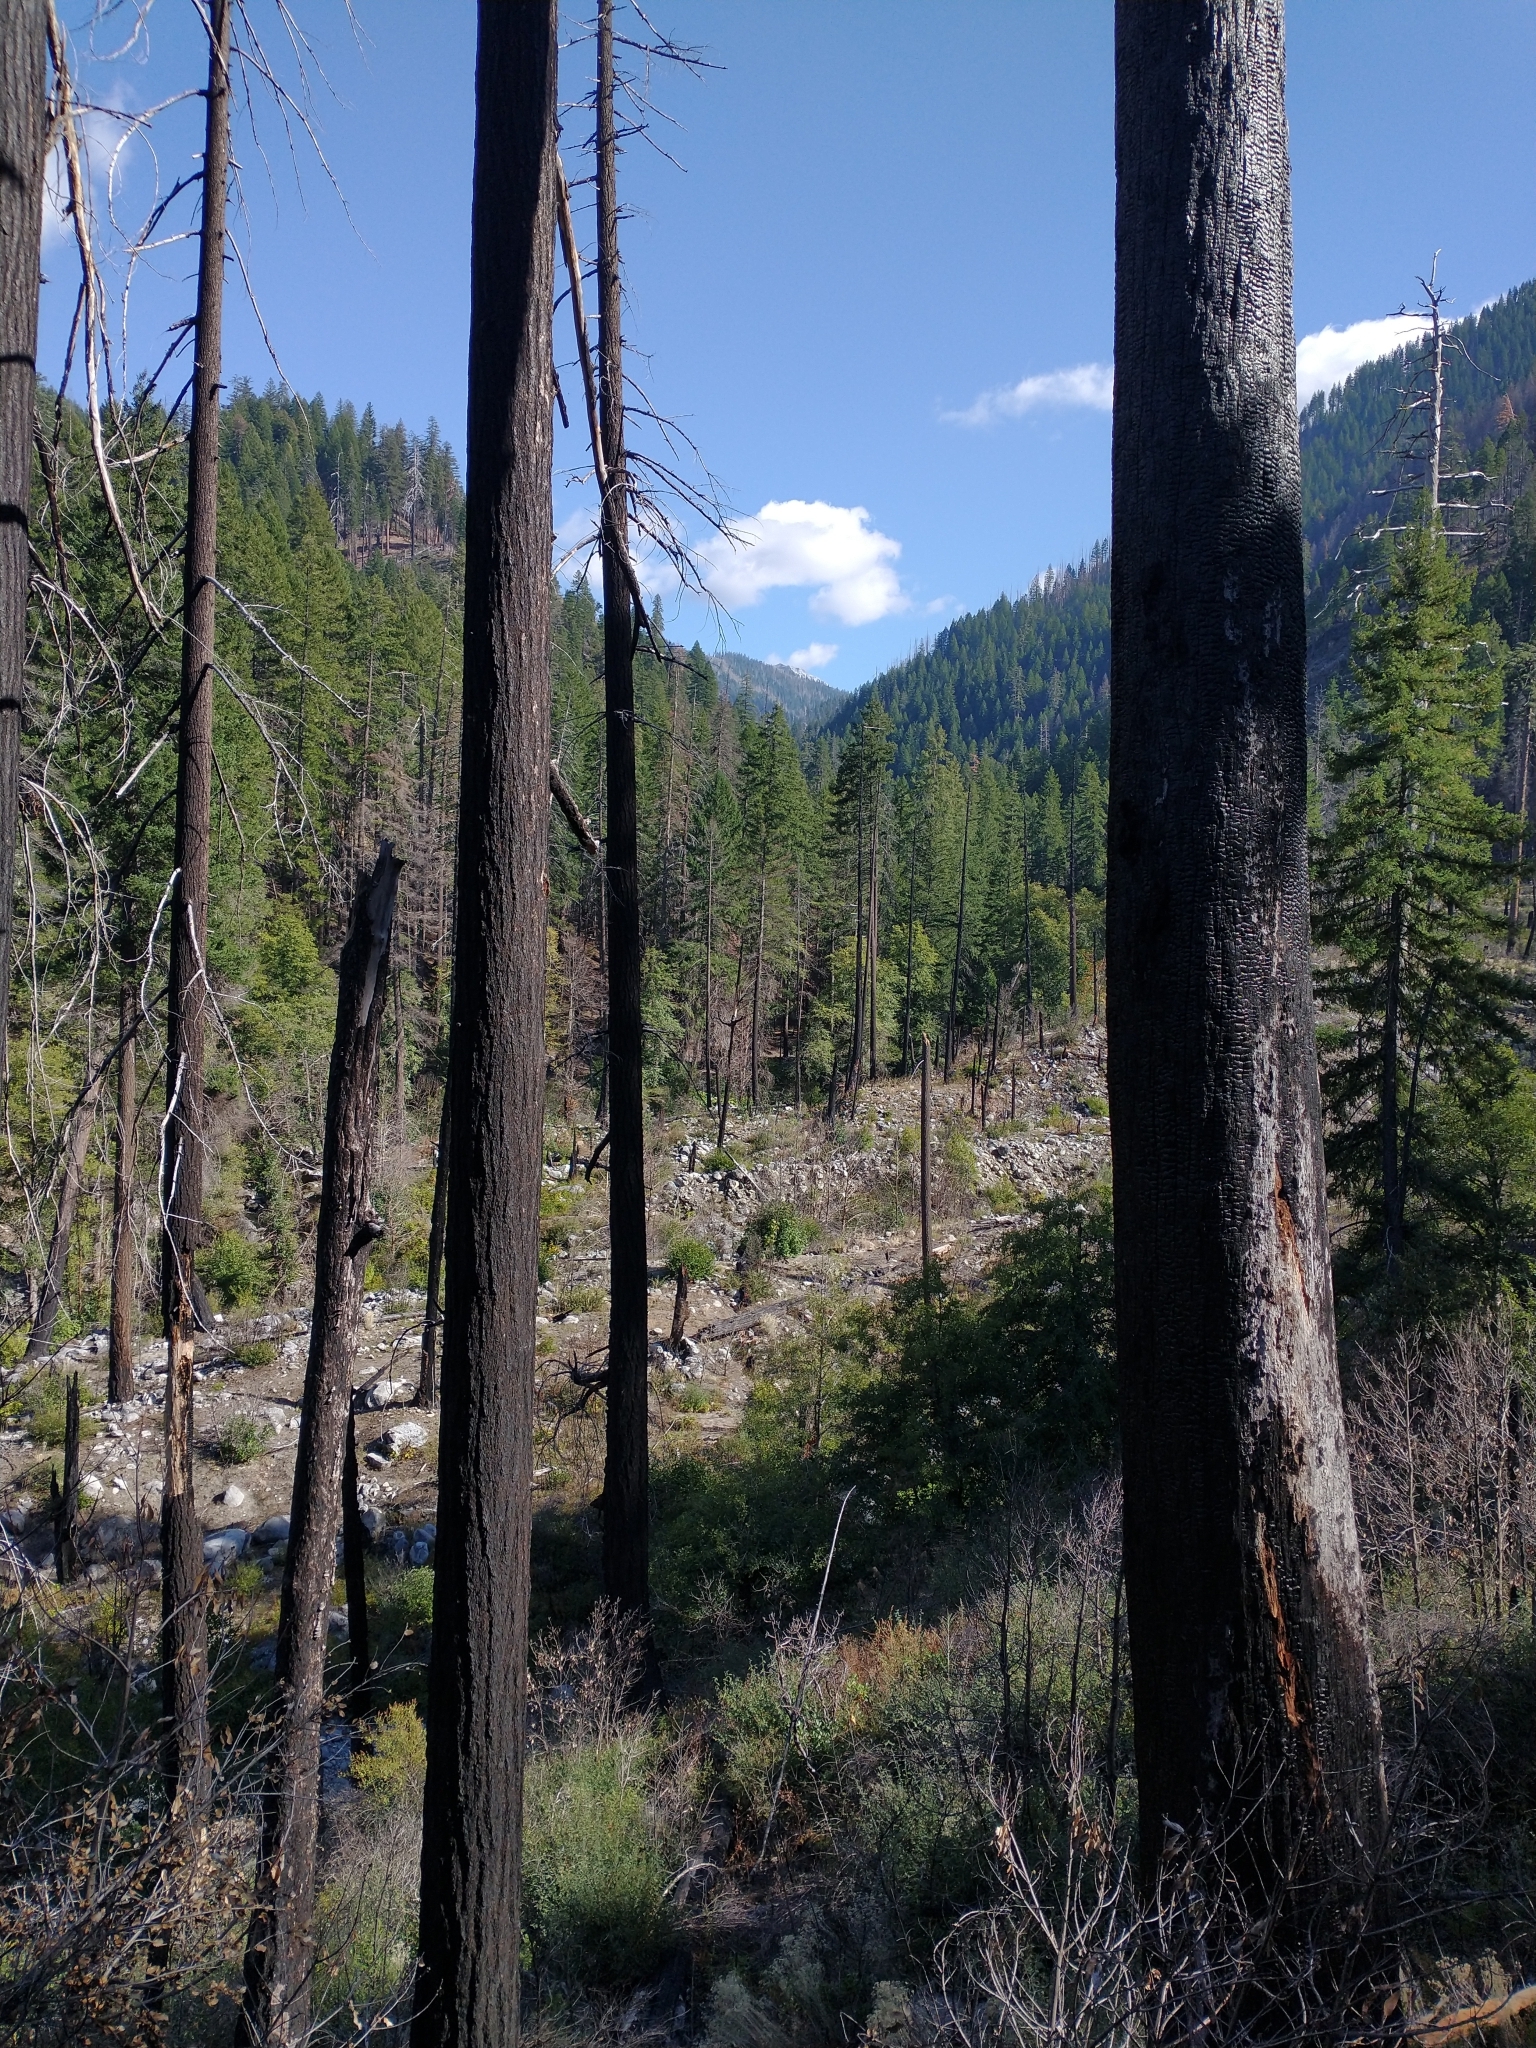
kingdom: Plantae
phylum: Tracheophyta
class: Pinopsida
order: Pinales
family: Pinaceae
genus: Pseudotsuga
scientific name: Pseudotsuga menziesii
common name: Douglas fir
